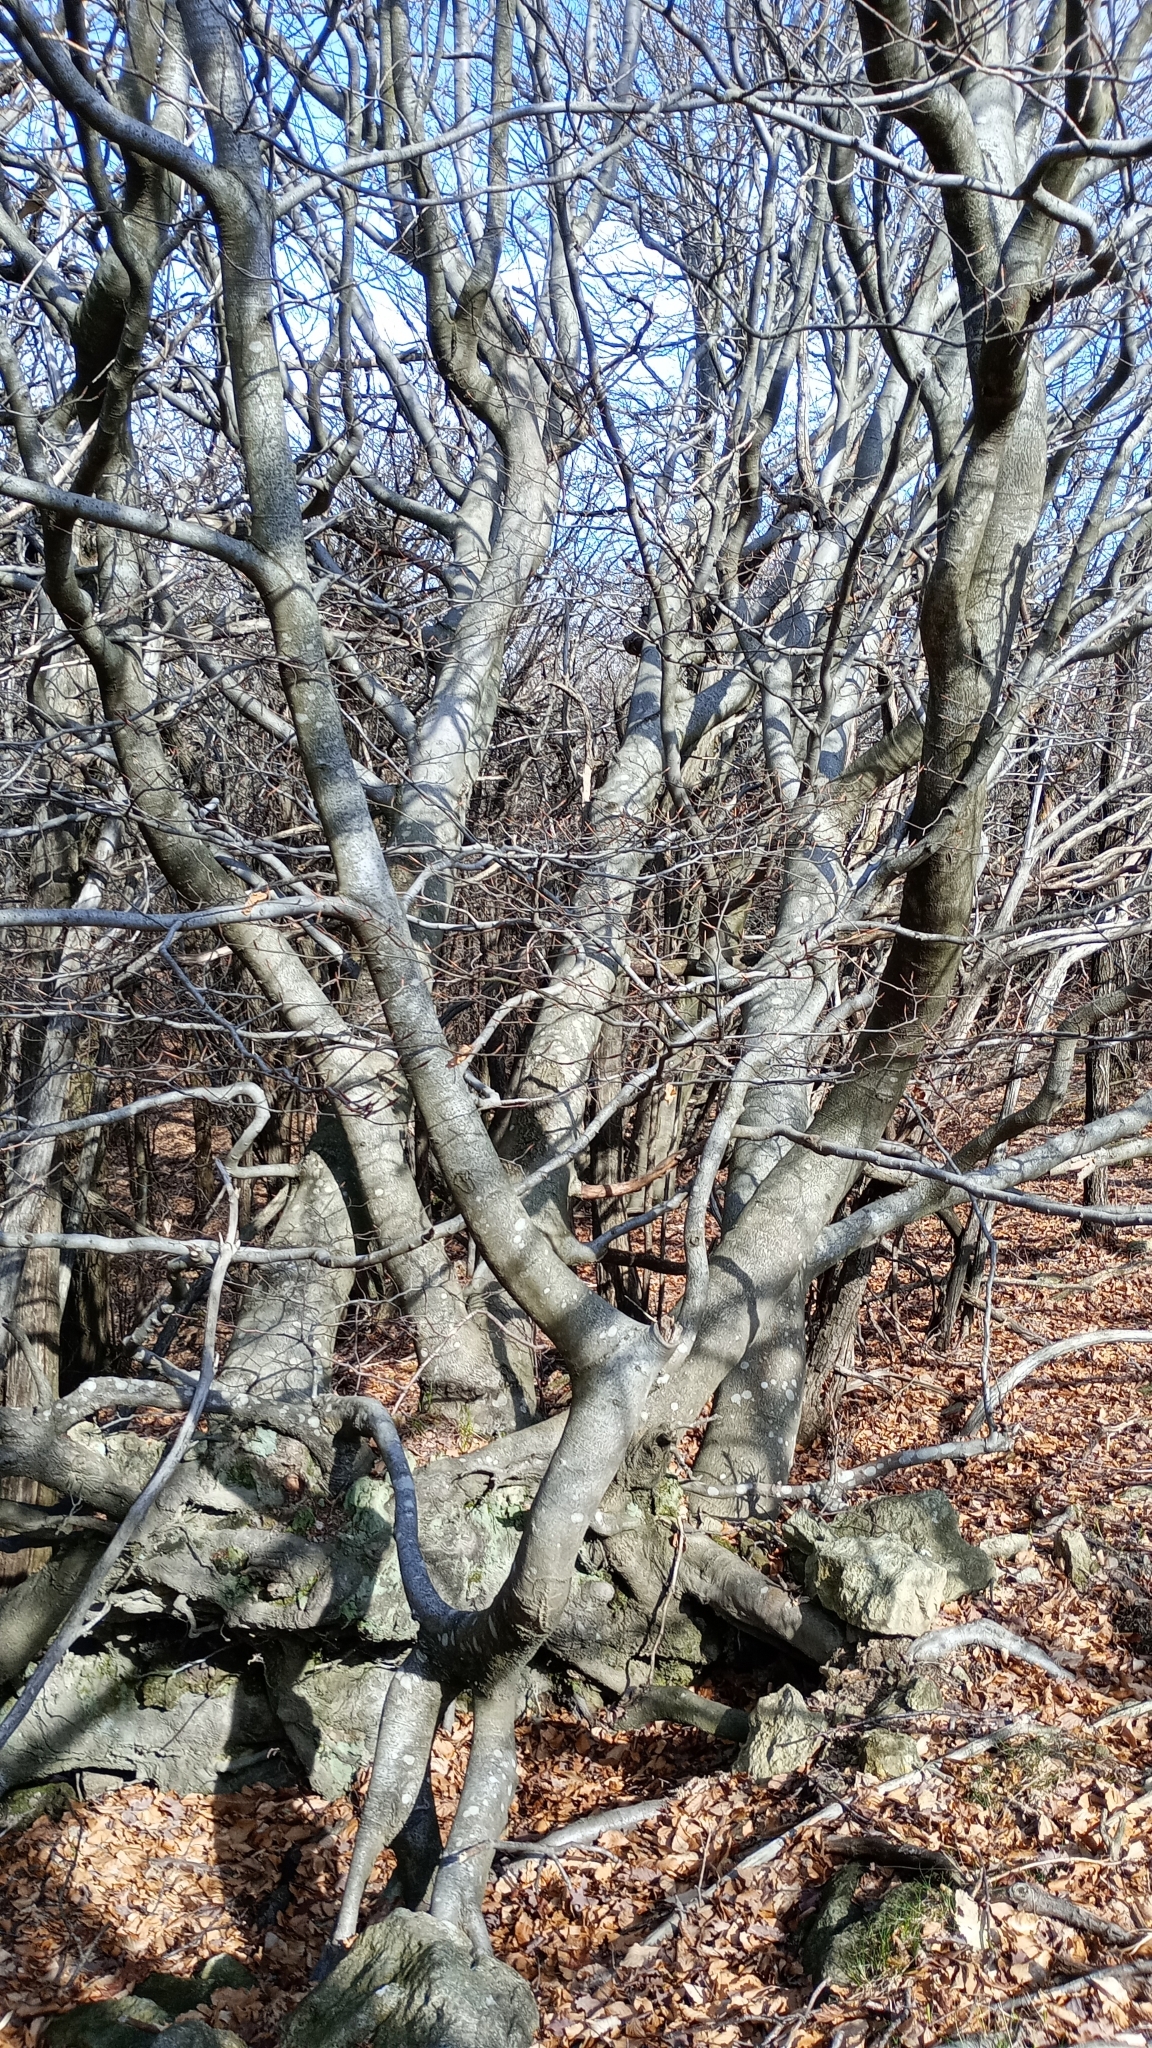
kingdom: Plantae
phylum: Tracheophyta
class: Magnoliopsida
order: Fagales
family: Fagaceae
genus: Fagus
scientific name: Fagus sylvatica
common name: Beech
